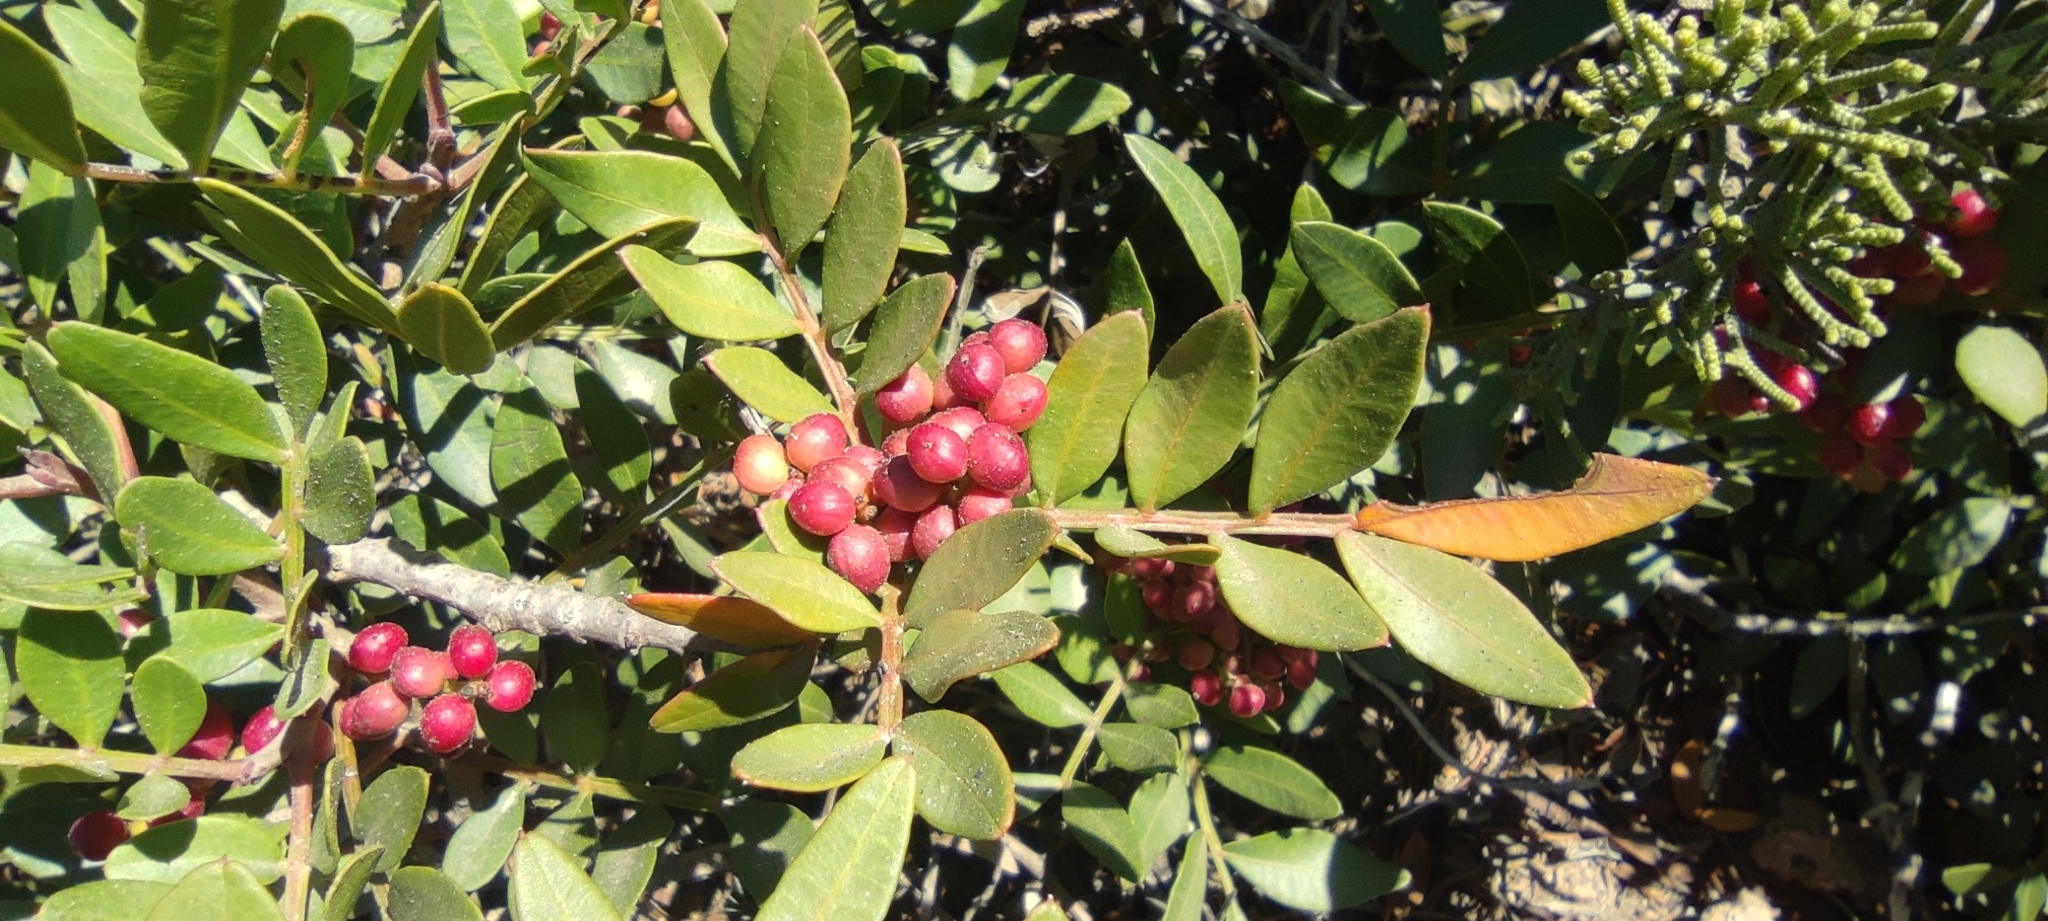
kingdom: Plantae
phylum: Tracheophyta
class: Magnoliopsida
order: Sapindales
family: Anacardiaceae
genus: Pistacia
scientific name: Pistacia lentiscus
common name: Lentisk
